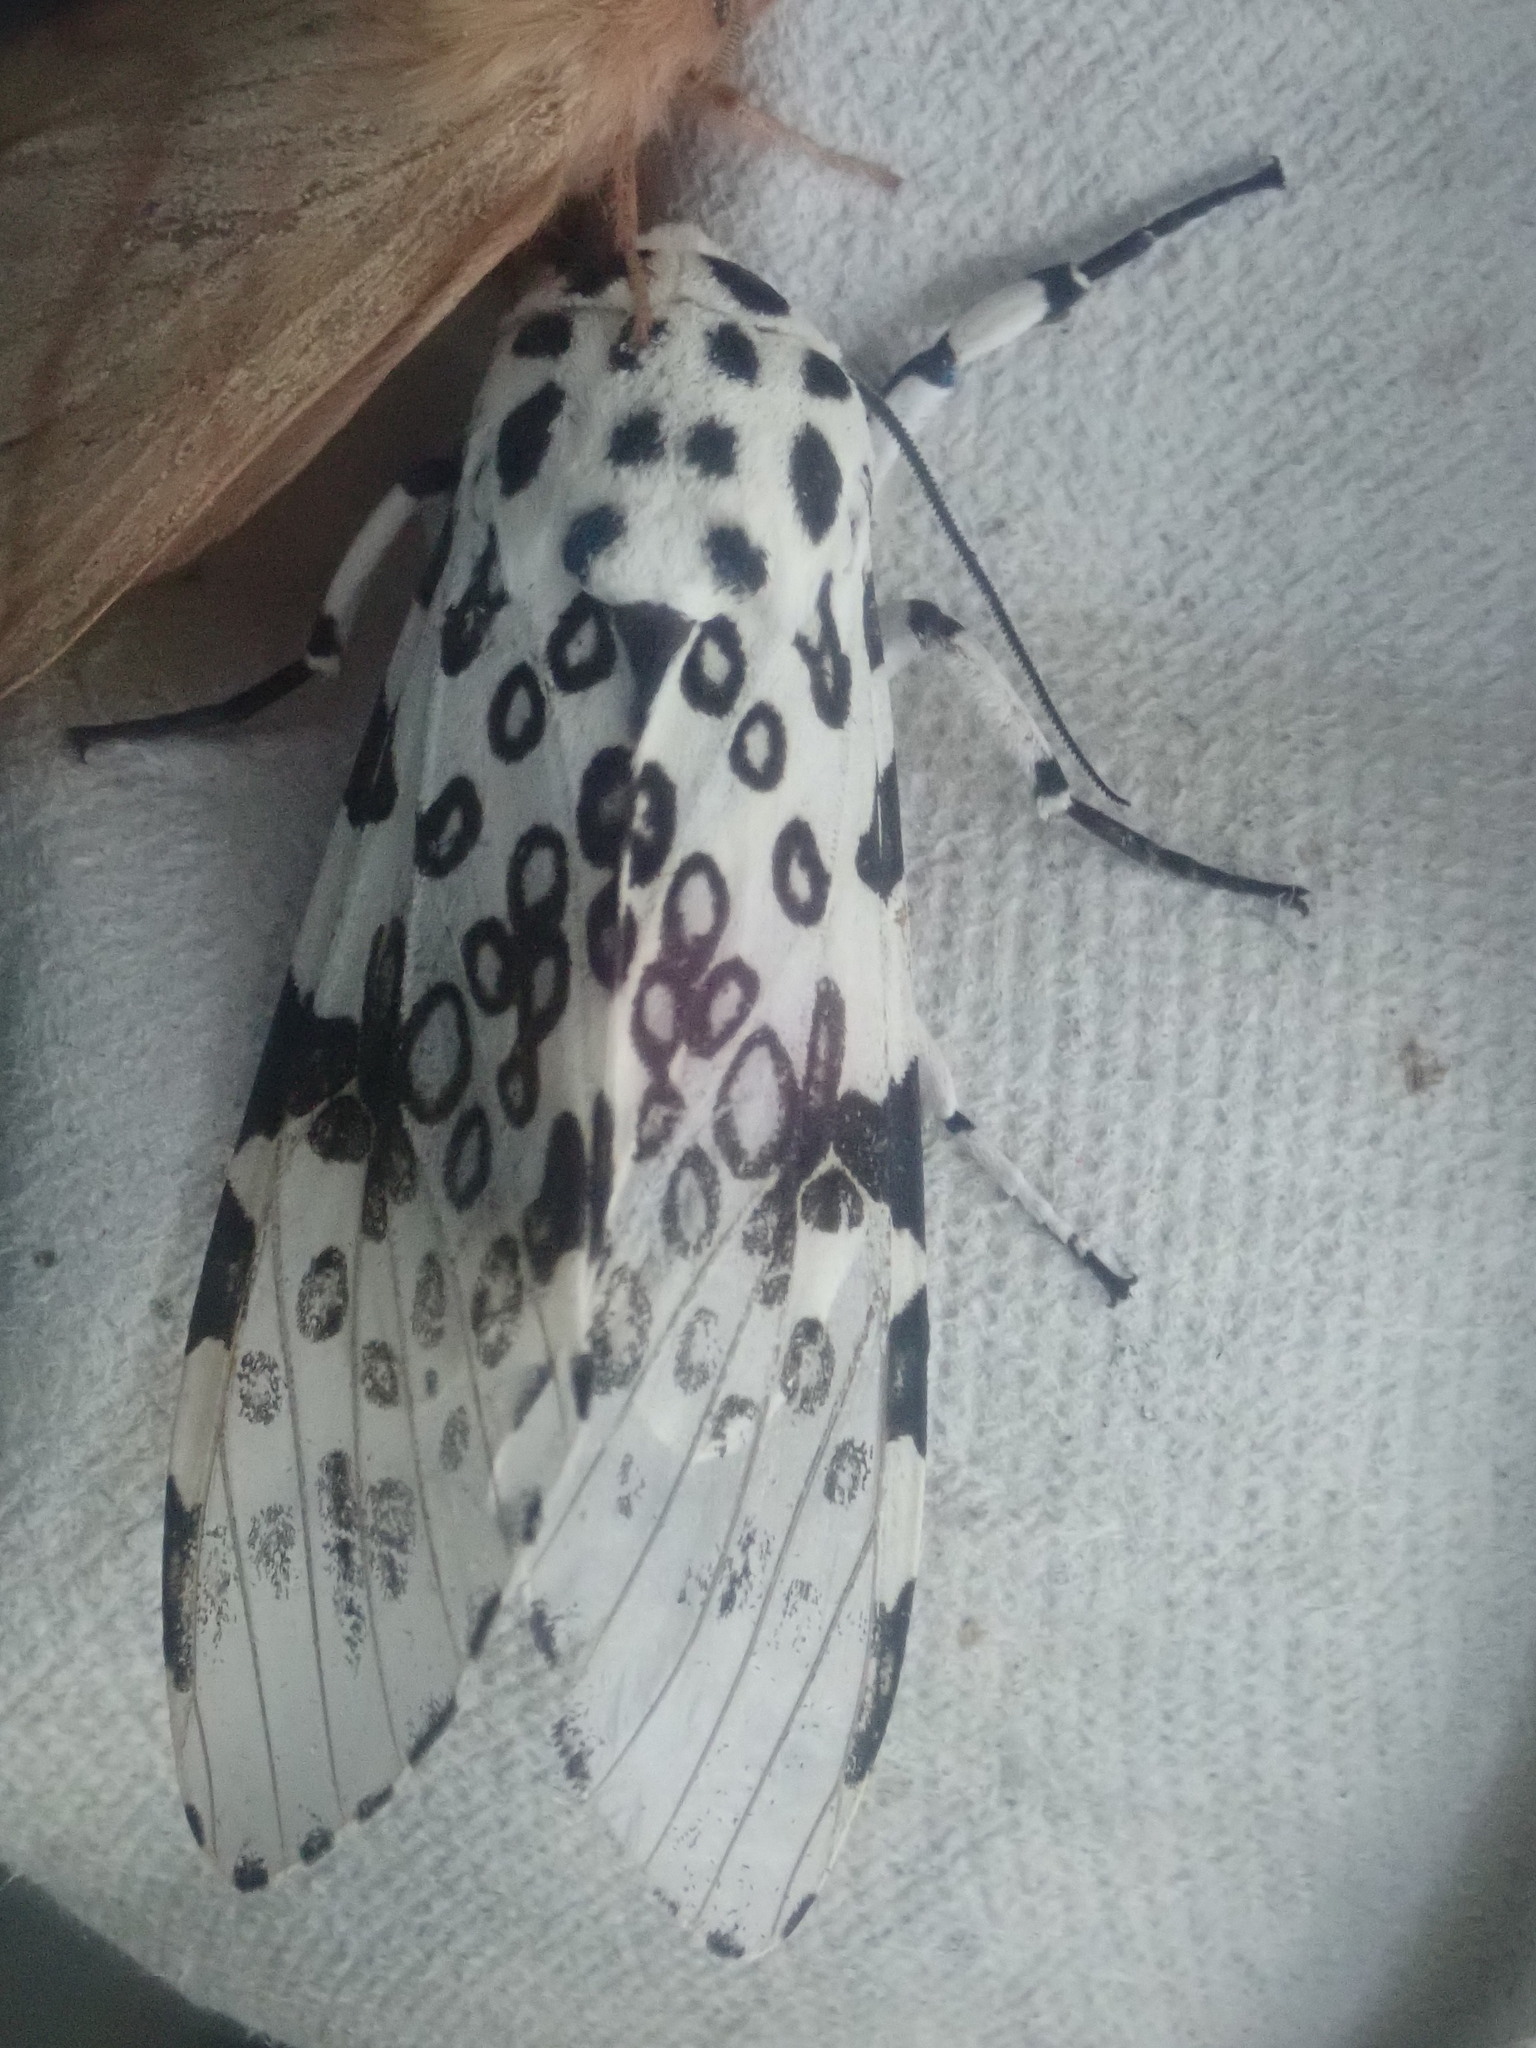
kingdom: Animalia
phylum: Arthropoda
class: Insecta
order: Lepidoptera
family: Erebidae
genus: Hypercompe
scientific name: Hypercompe scribonia
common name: Giant leopard moth
